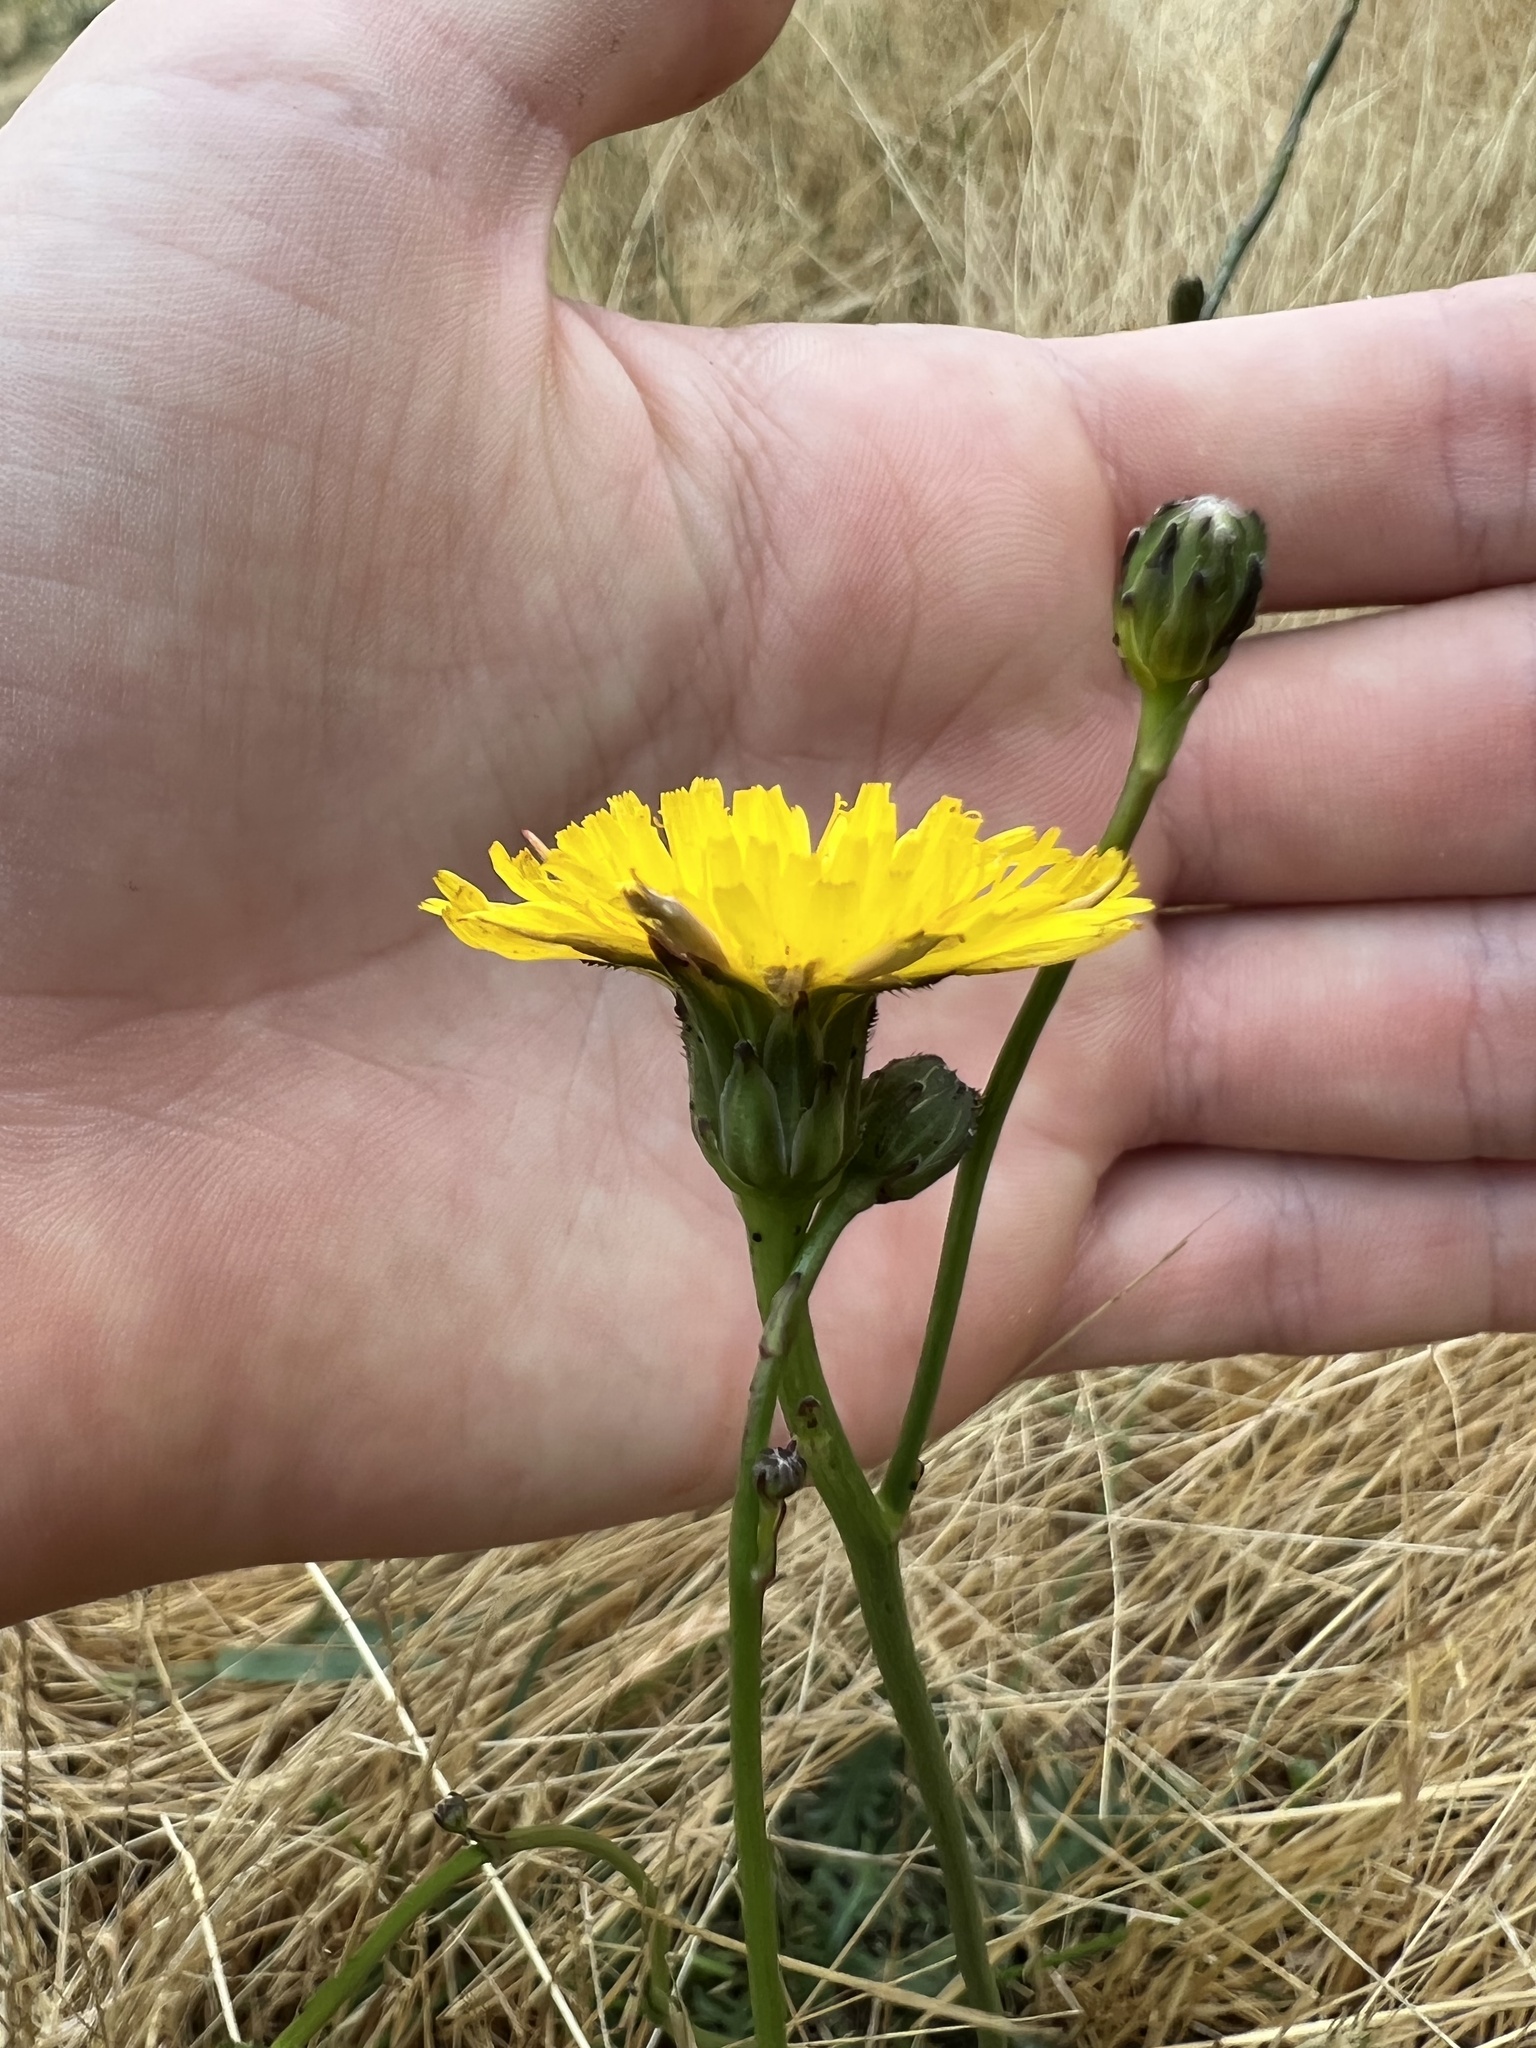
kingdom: Plantae
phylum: Tracheophyta
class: Magnoliopsida
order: Asterales
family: Asteraceae
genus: Hypochaeris
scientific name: Hypochaeris radicata
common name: Flatweed
